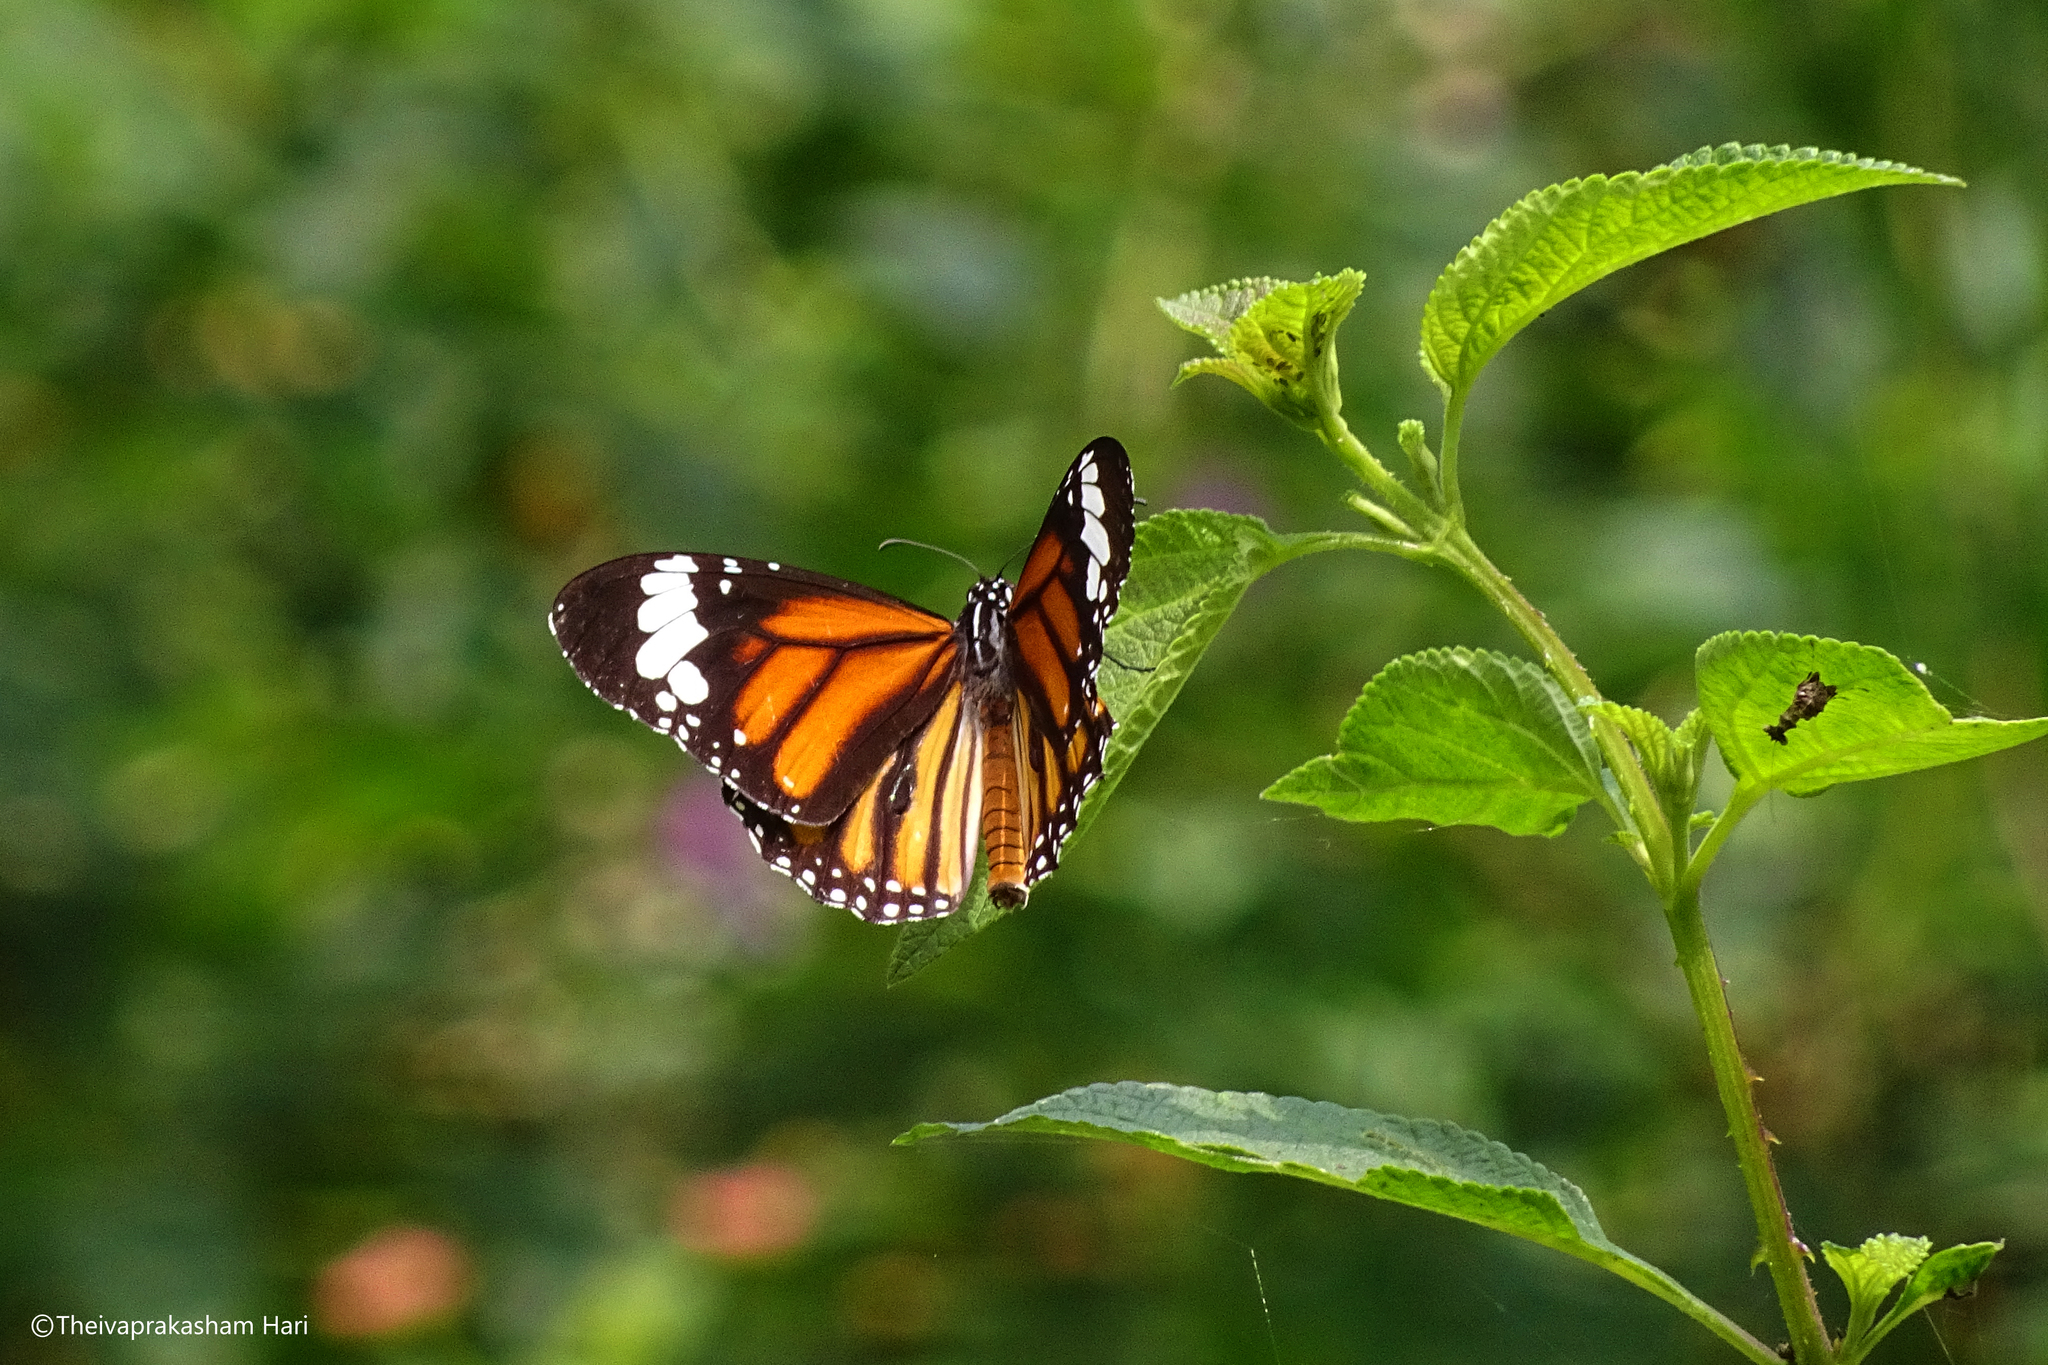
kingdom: Animalia
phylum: Arthropoda
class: Insecta
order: Lepidoptera
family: Nymphalidae
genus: Danaus
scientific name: Danaus genutia
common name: Common tiger butterfly
